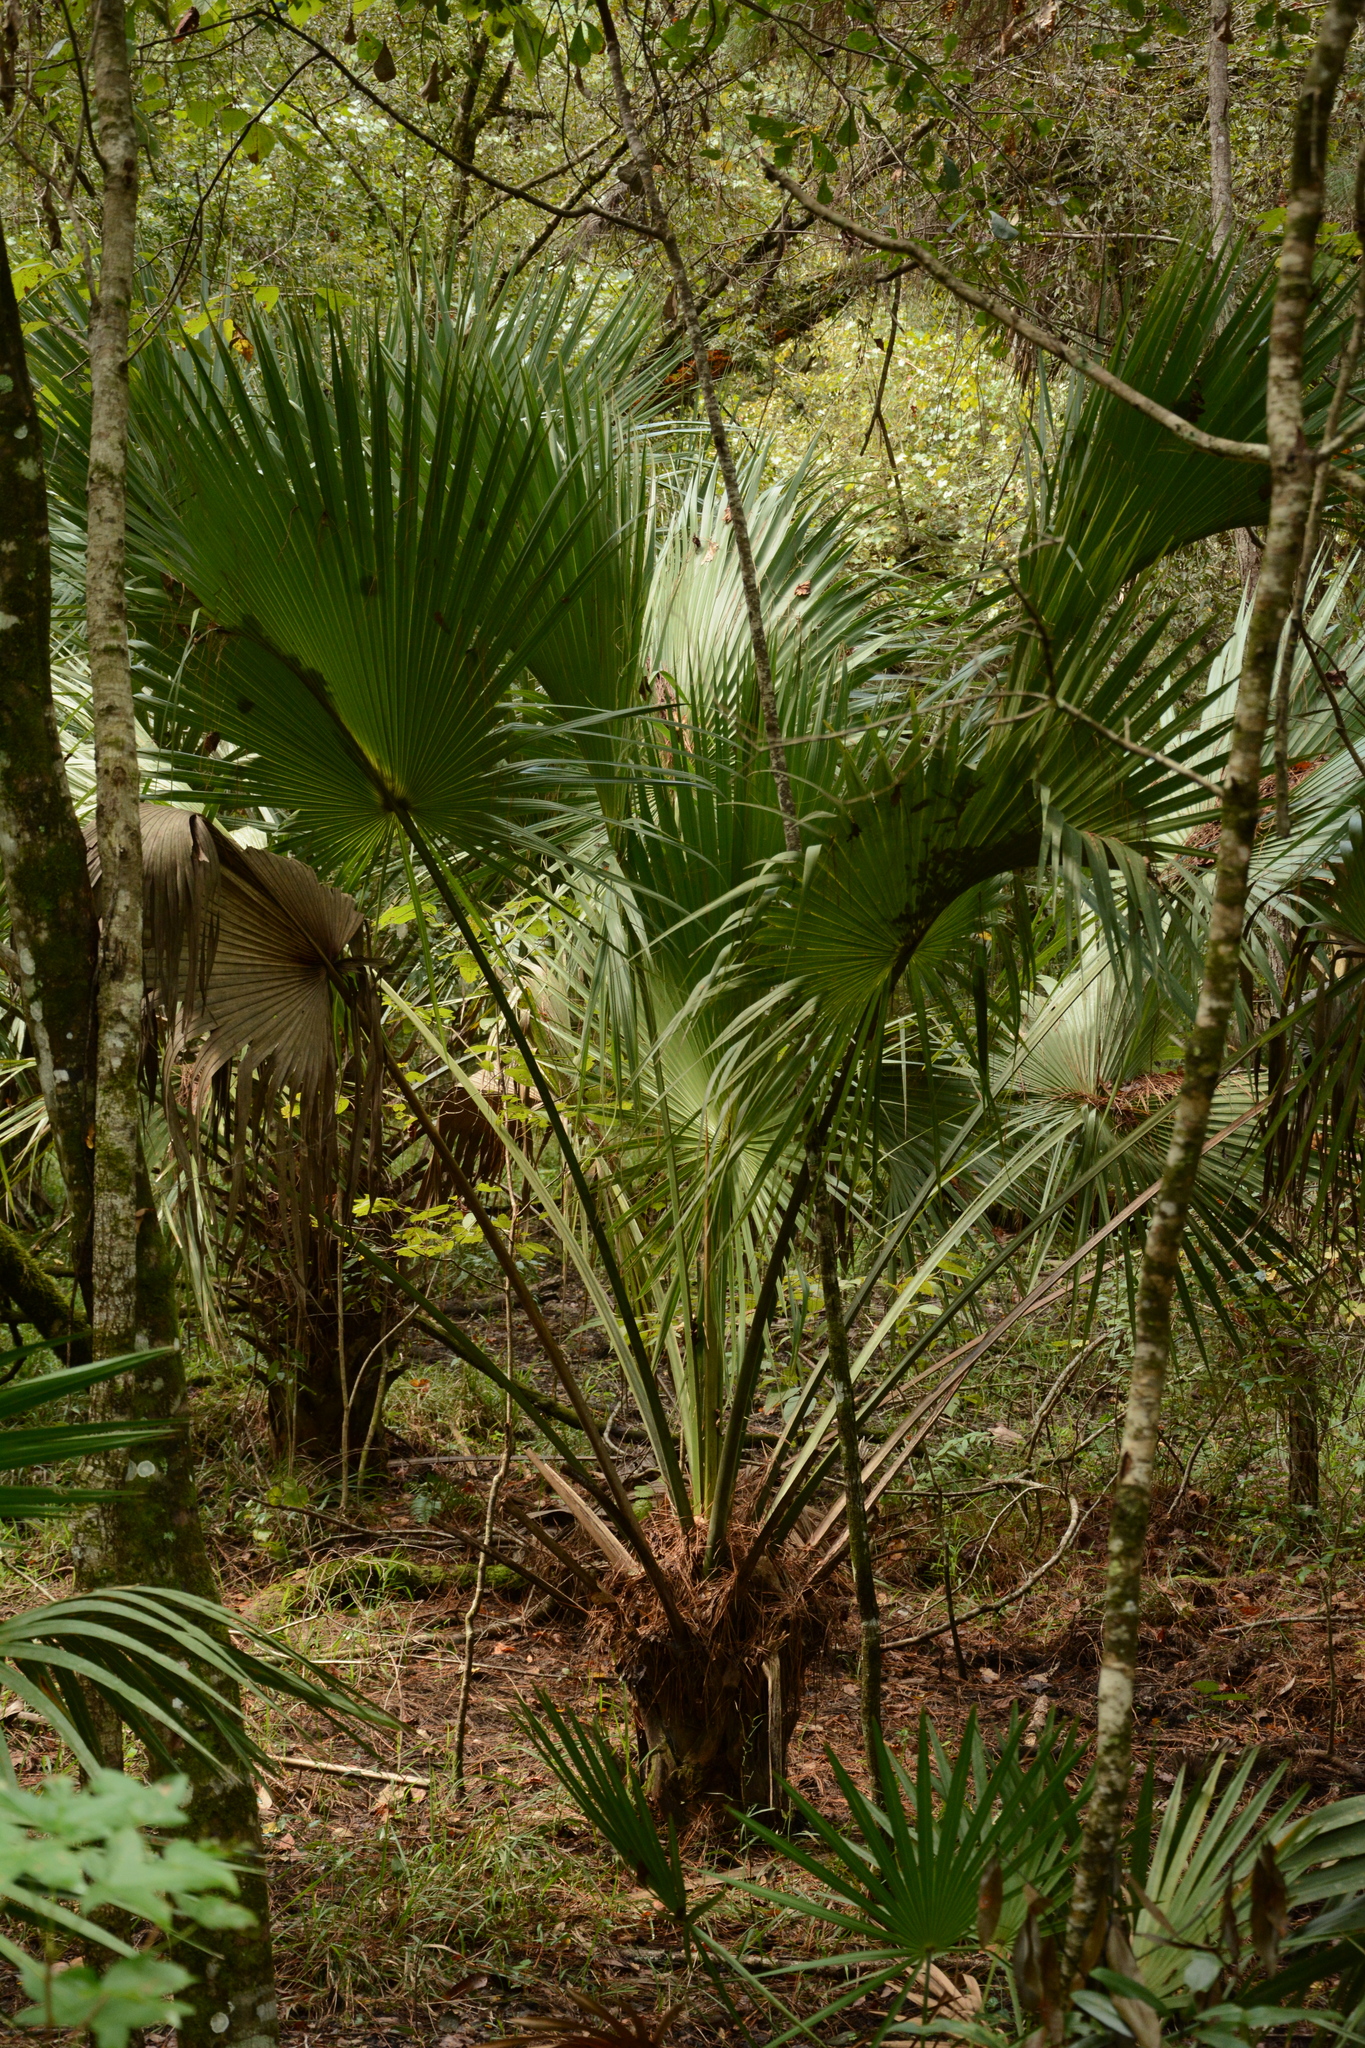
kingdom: Plantae
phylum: Tracheophyta
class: Liliopsida
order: Arecales
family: Arecaceae
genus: Sabal
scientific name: Sabal palmetto
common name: Blue palmetto
